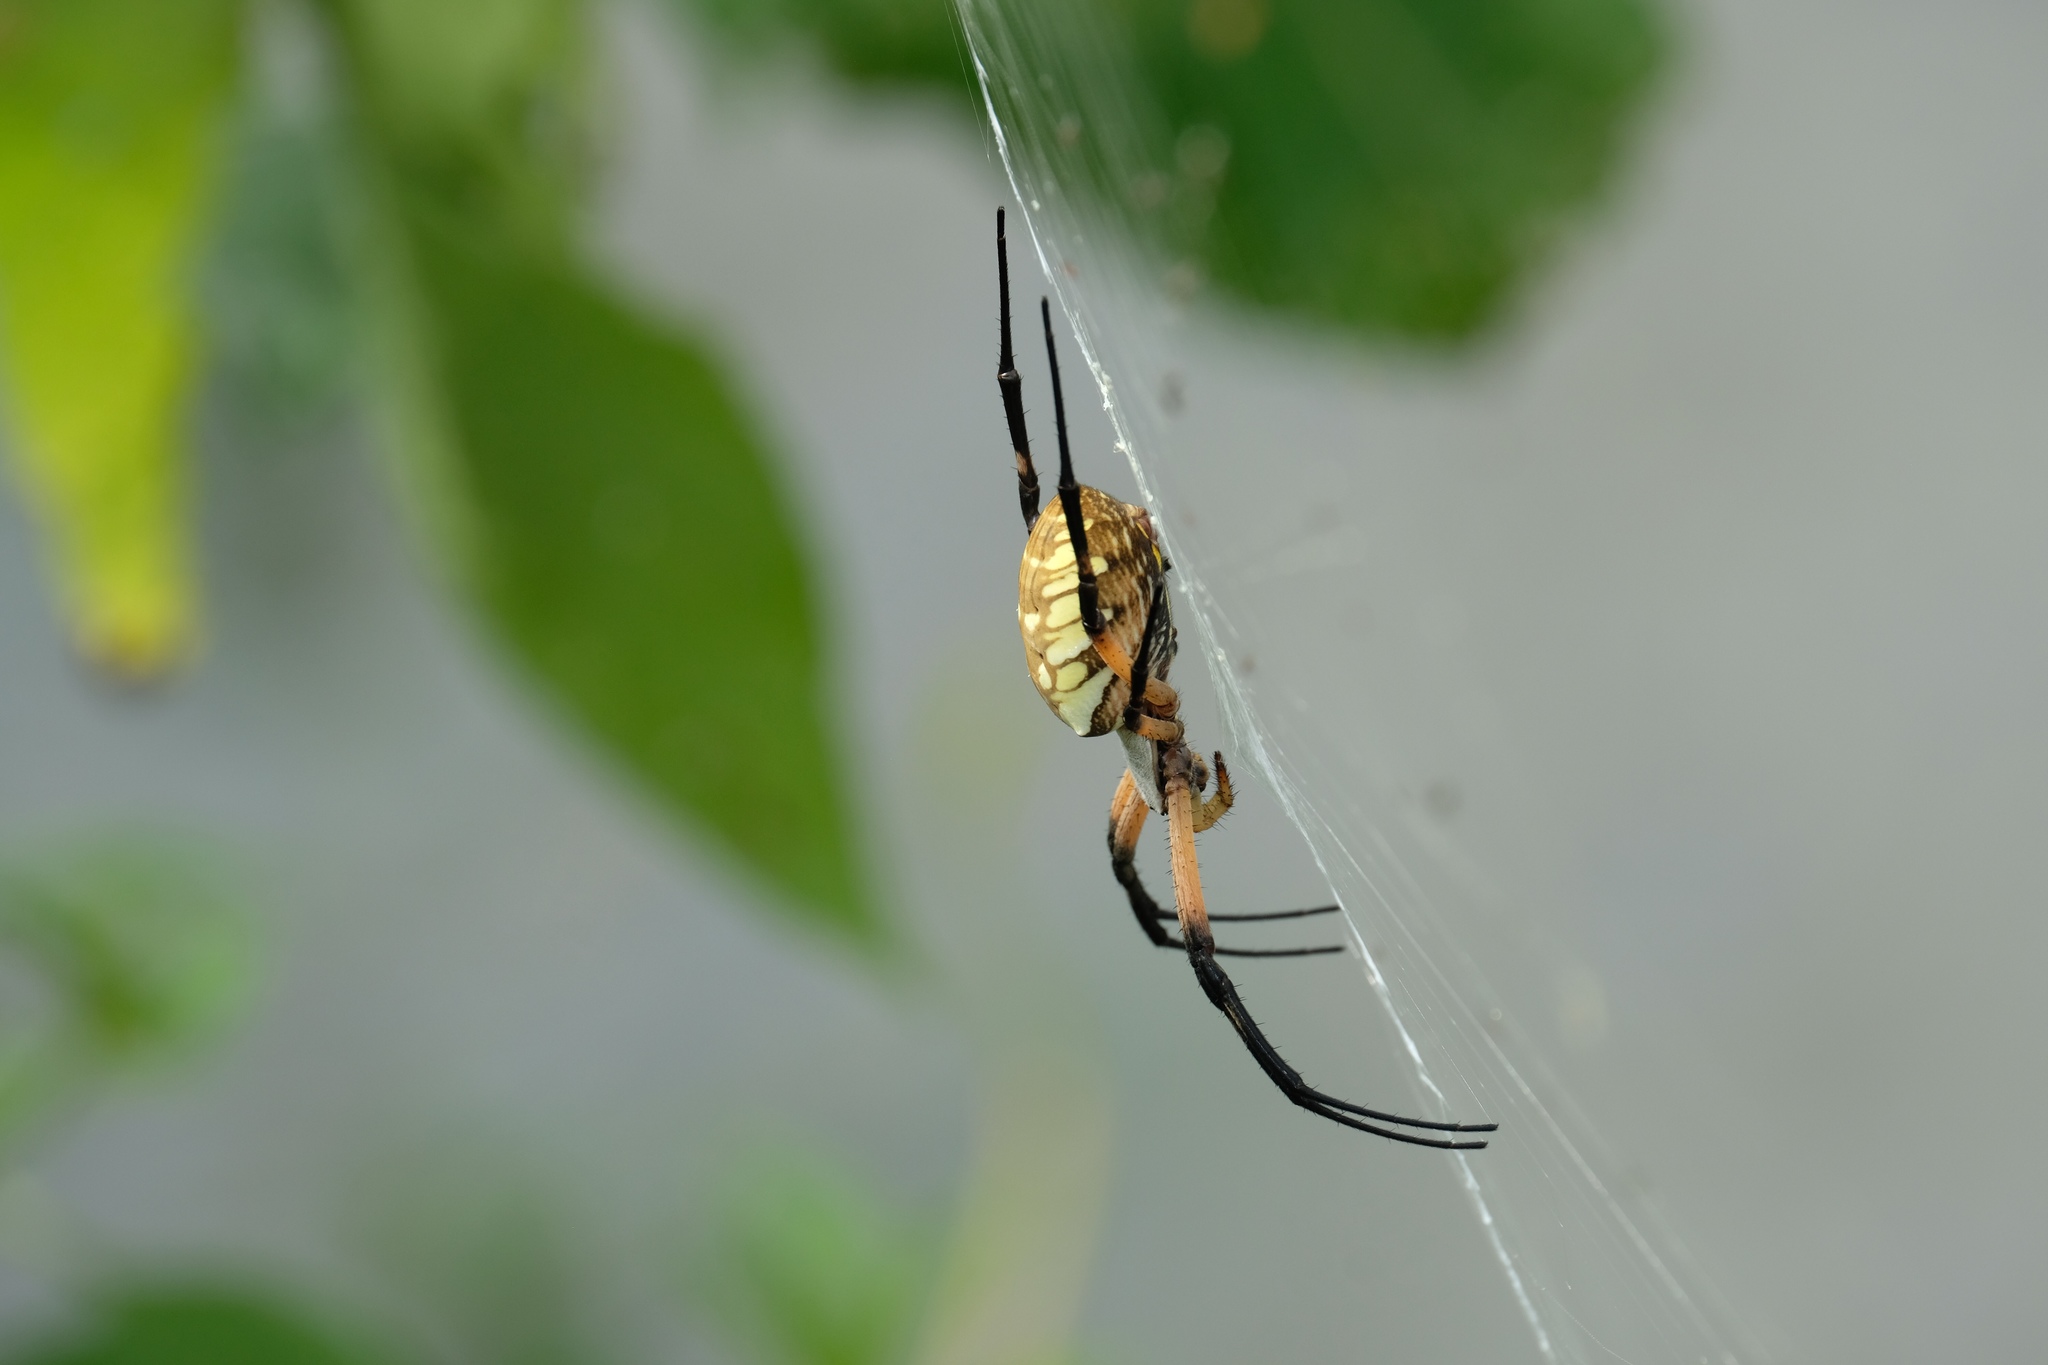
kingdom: Animalia
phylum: Arthropoda
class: Arachnida
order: Araneae
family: Araneidae
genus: Argiope
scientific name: Argiope aurantia
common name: Orb weavers
